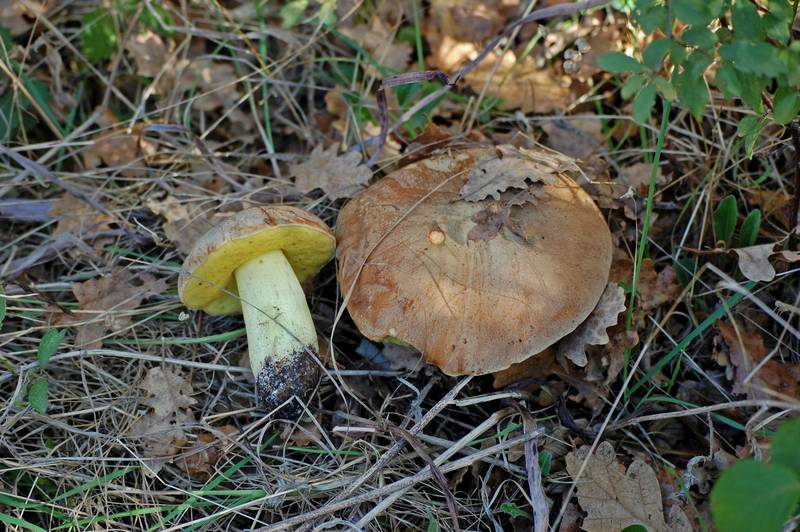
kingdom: Fungi
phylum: Basidiomycota
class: Agaricomycetes
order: Boletales
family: Boletaceae
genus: Hemileccinum
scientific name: Hemileccinum impolitum
